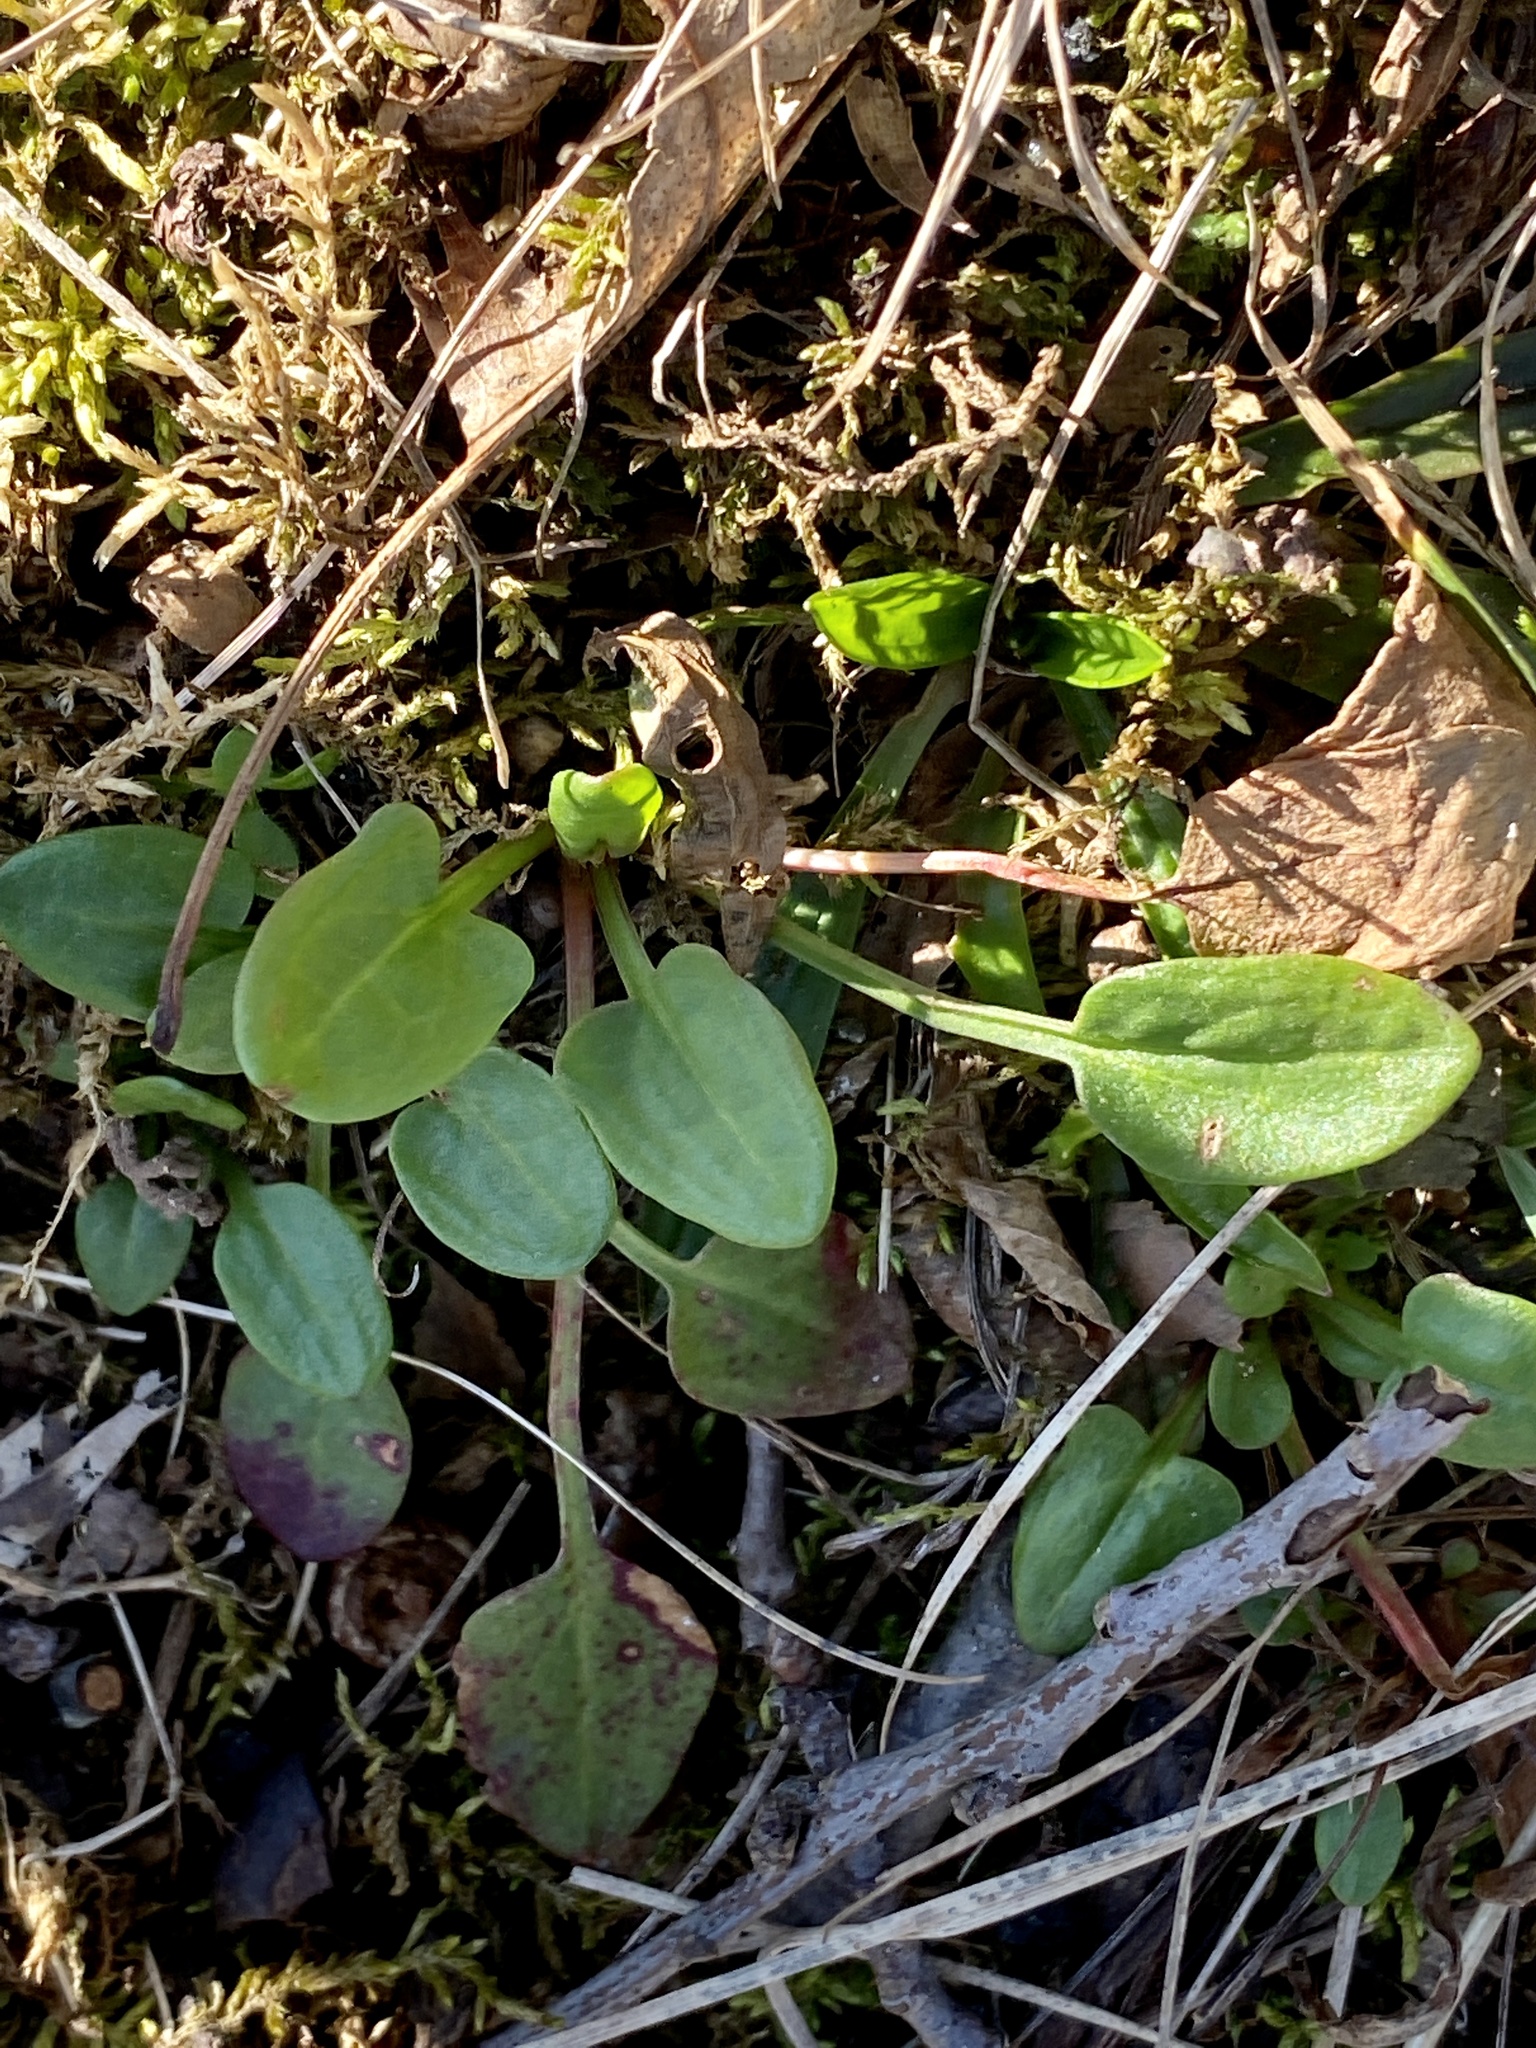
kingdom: Plantae
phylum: Tracheophyta
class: Magnoliopsida
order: Caryophyllales
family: Polygonaceae
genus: Rumex
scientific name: Rumex acetosella
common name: Common sheep sorrel
